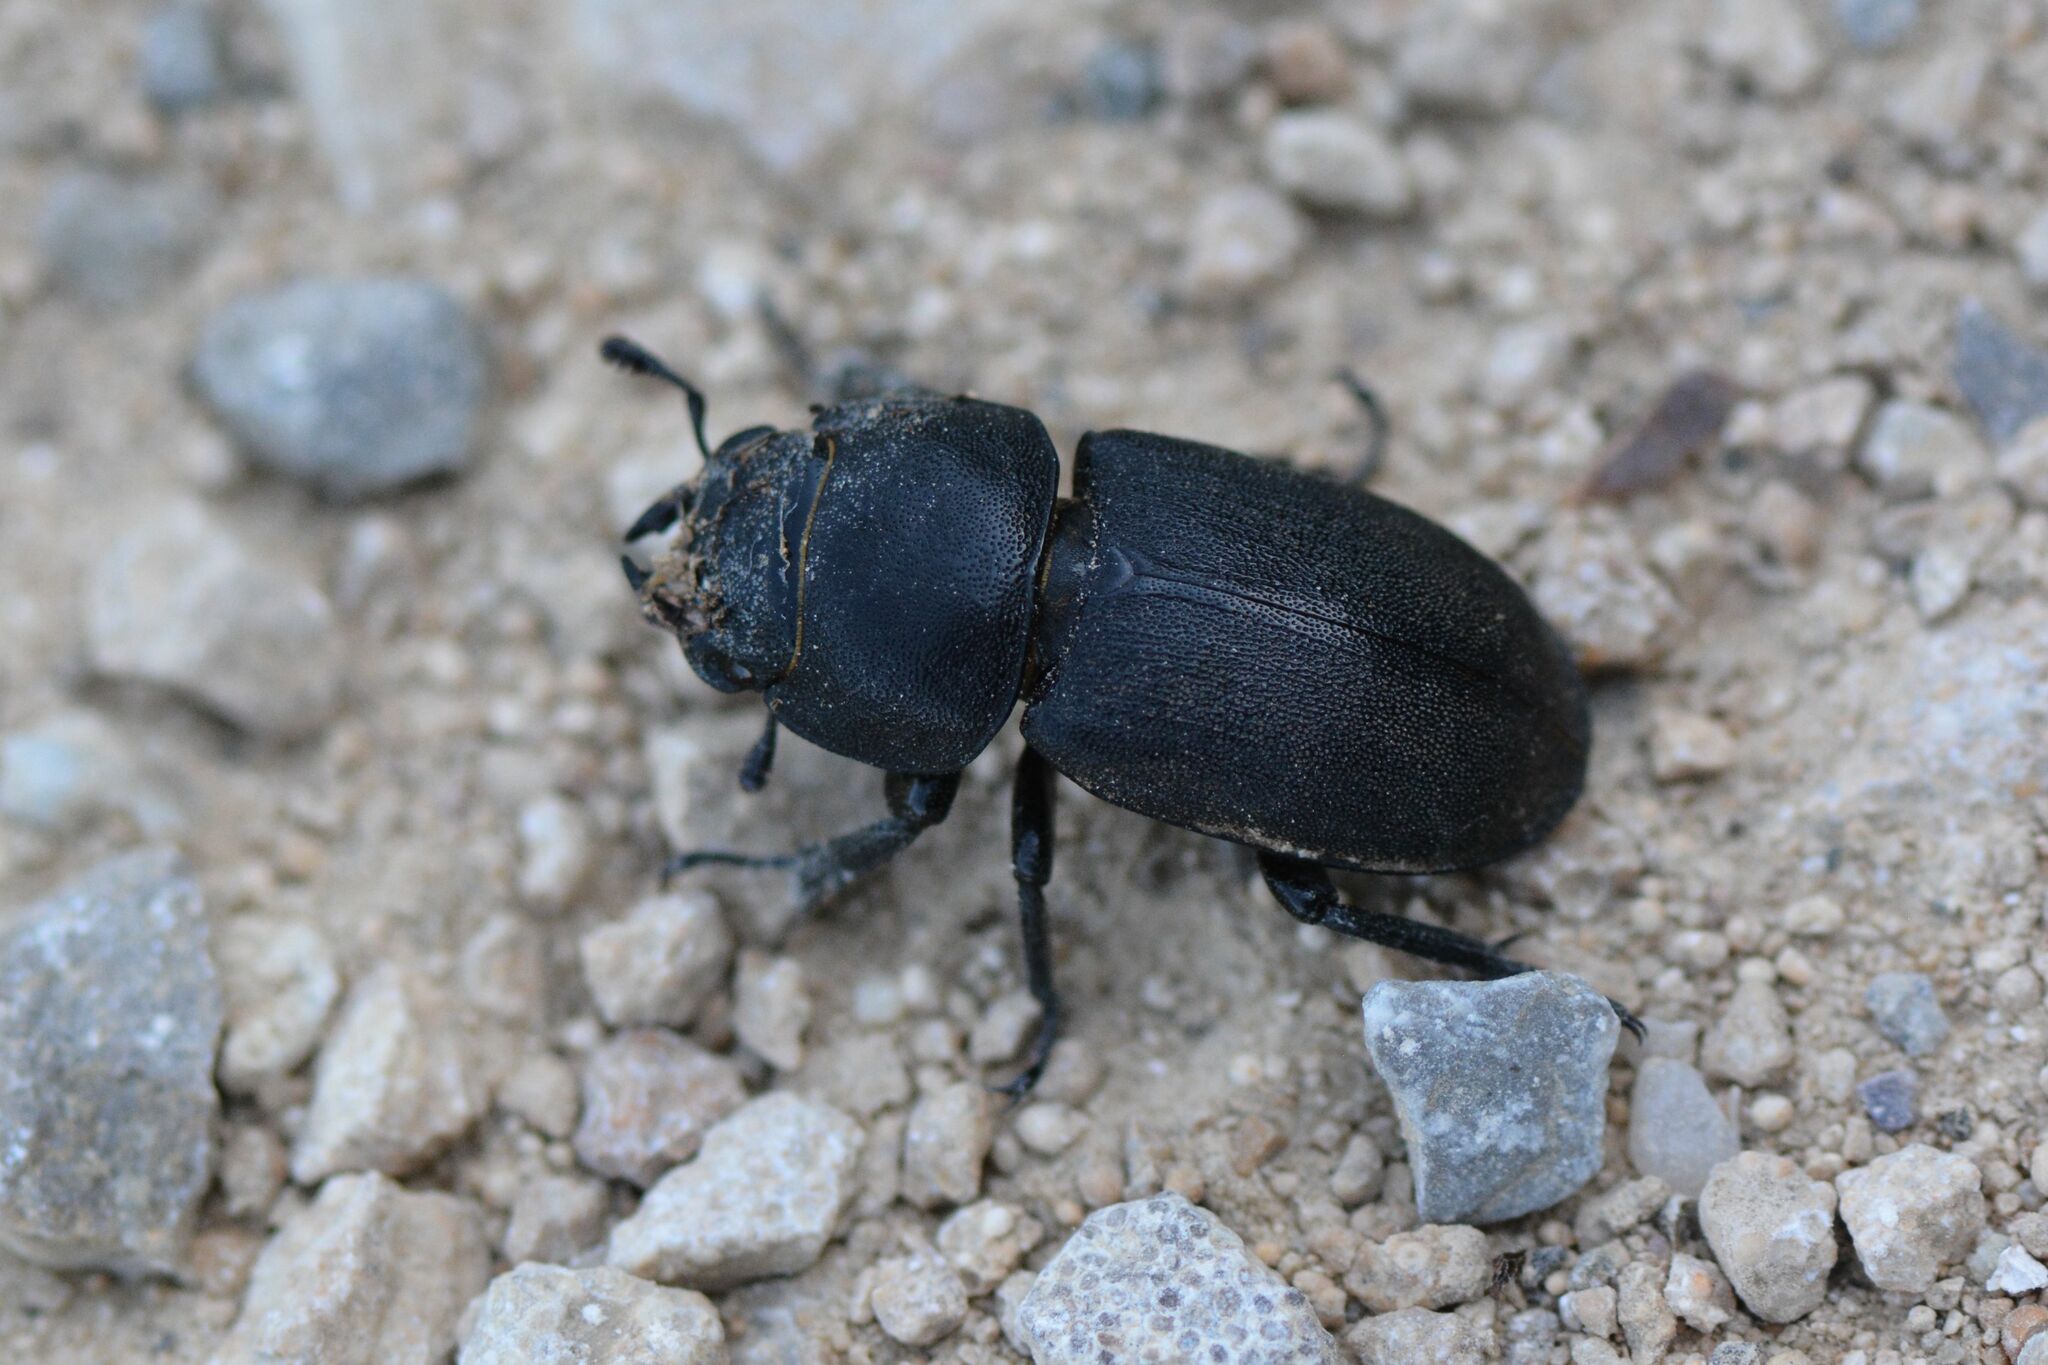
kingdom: Animalia
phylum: Arthropoda
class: Insecta
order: Coleoptera
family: Lucanidae
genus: Dorcus
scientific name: Dorcus parallelipipedus
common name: Lesser stag beetle
